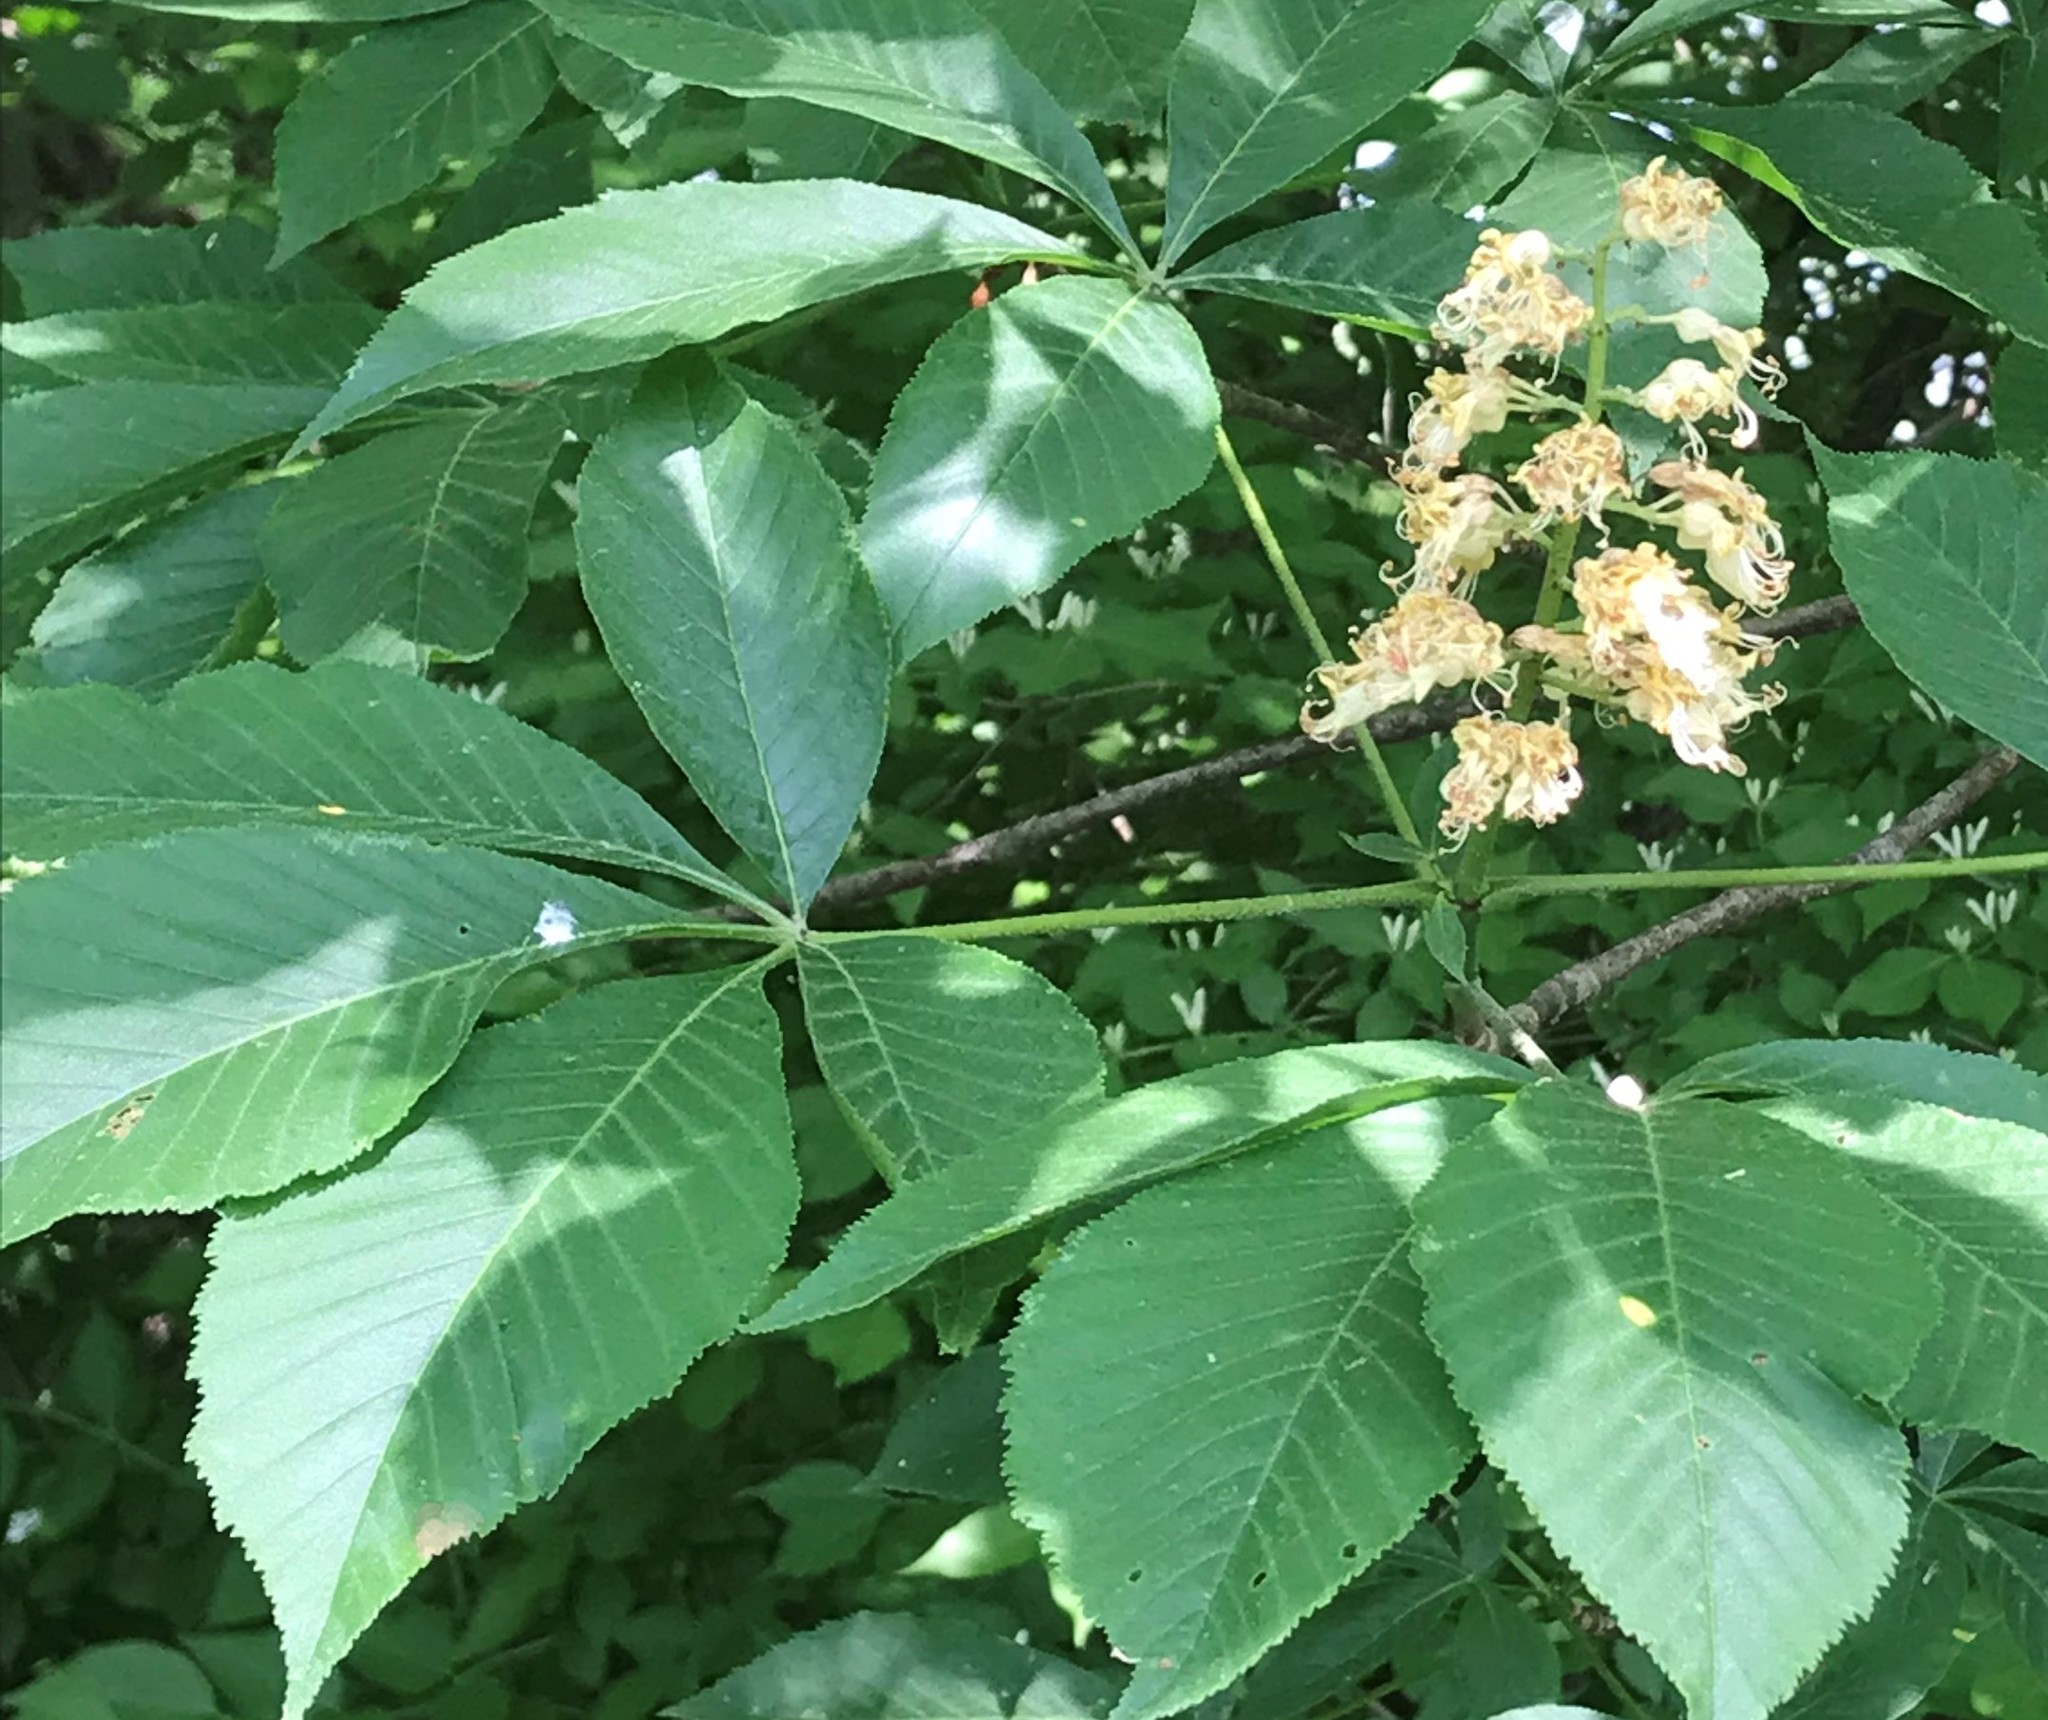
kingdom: Plantae
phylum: Tracheophyta
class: Magnoliopsida
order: Sapindales
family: Sapindaceae
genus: Aesculus
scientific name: Aesculus glabra
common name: Ohio buckeye
